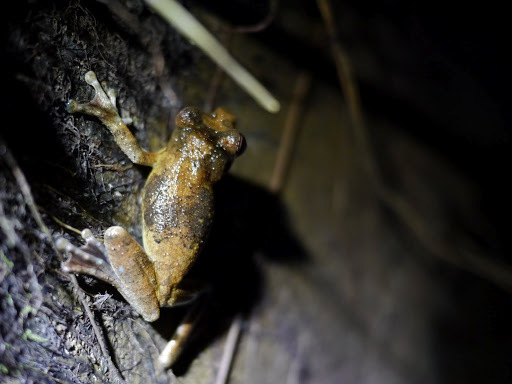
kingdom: Animalia
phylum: Chordata
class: Amphibia
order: Anura
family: Rhacophoridae
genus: Chiromantis
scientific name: Chiromantis rufescens
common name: African foam-nest treefrog
